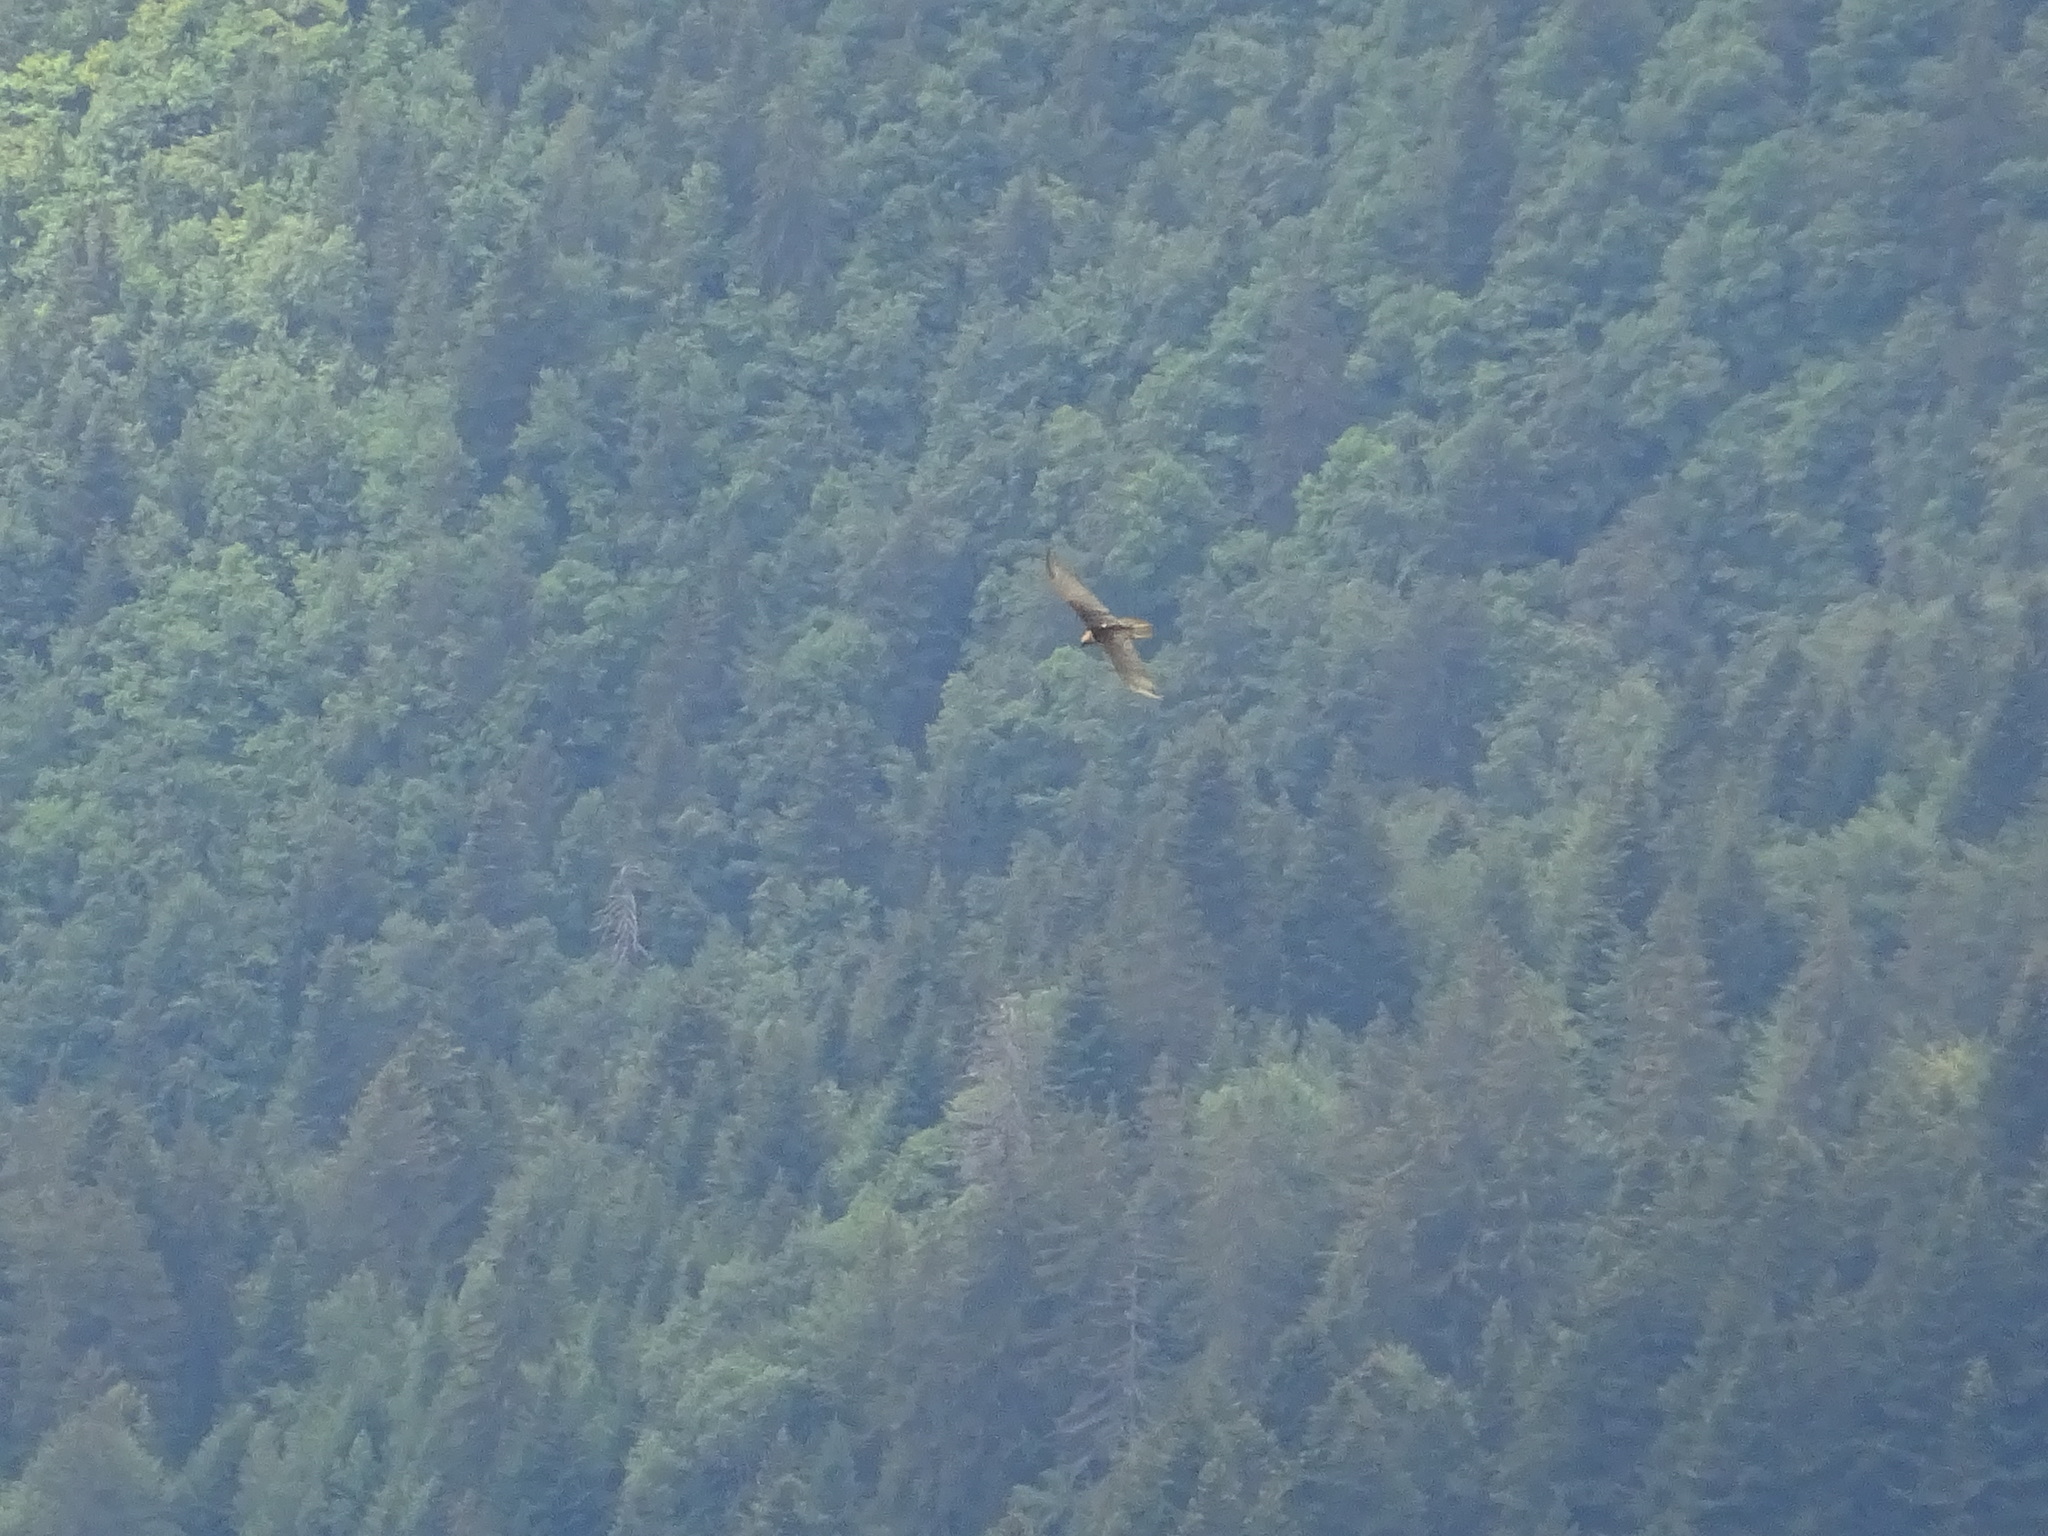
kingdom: Animalia
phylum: Chordata
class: Aves
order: Accipitriformes
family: Accipitridae
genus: Gypaetus
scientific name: Gypaetus barbatus
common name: Bearded vulture
